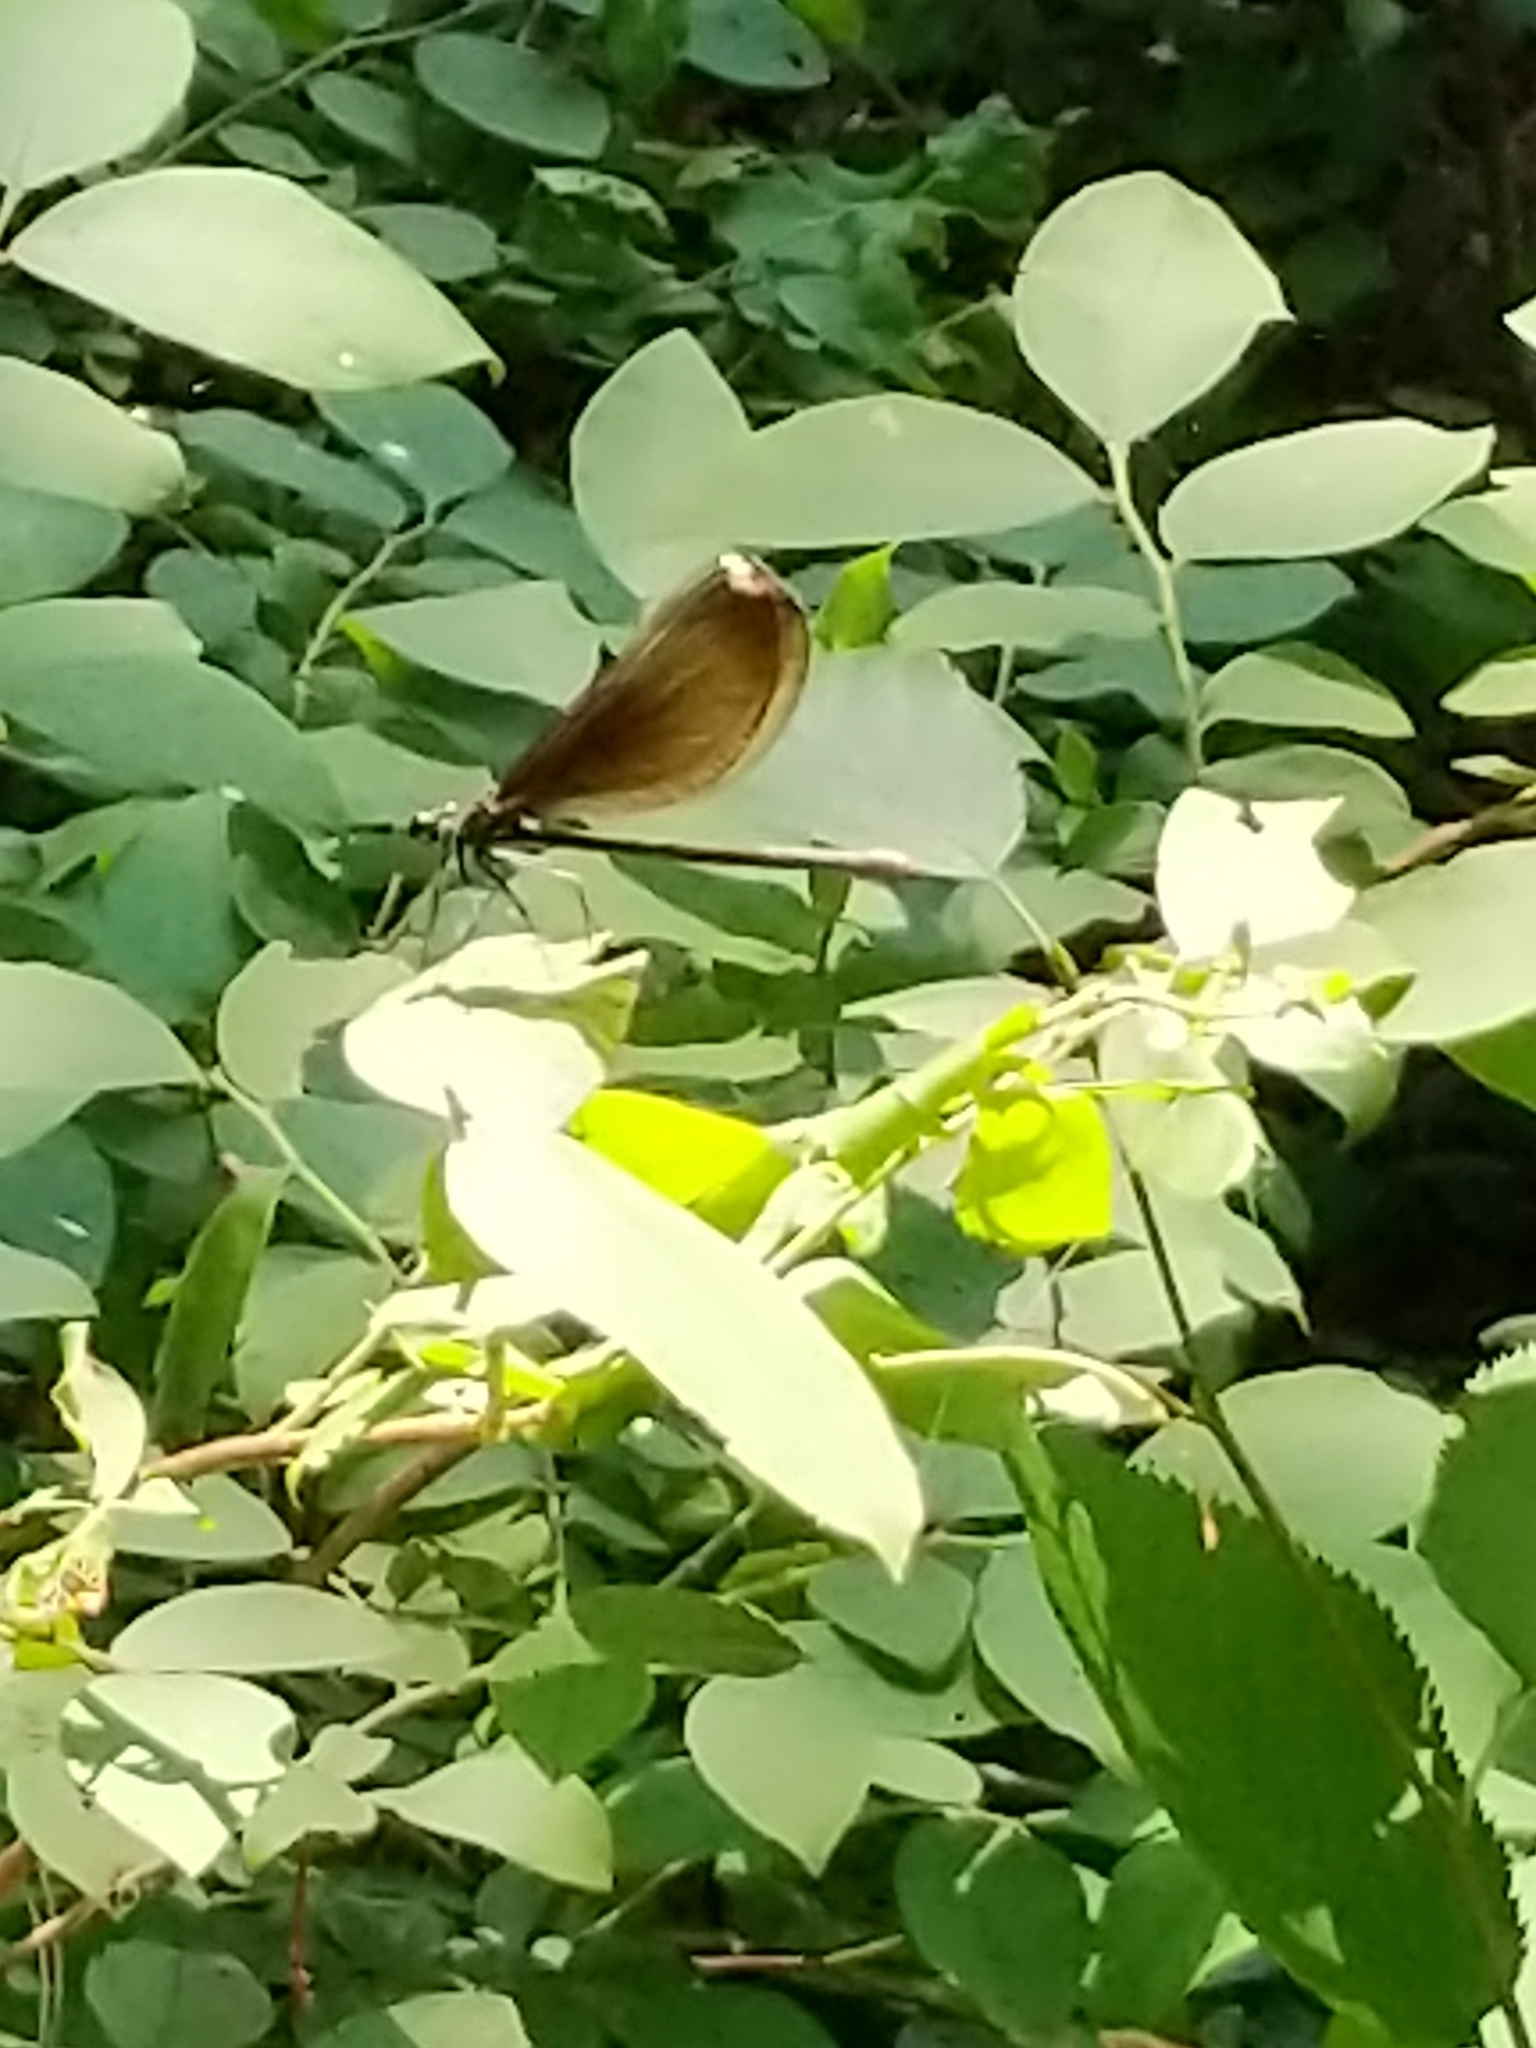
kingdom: Animalia
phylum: Arthropoda
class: Insecta
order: Odonata
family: Calopterygidae
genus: Calopteryx
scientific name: Calopteryx maculata
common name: Ebony jewelwing
